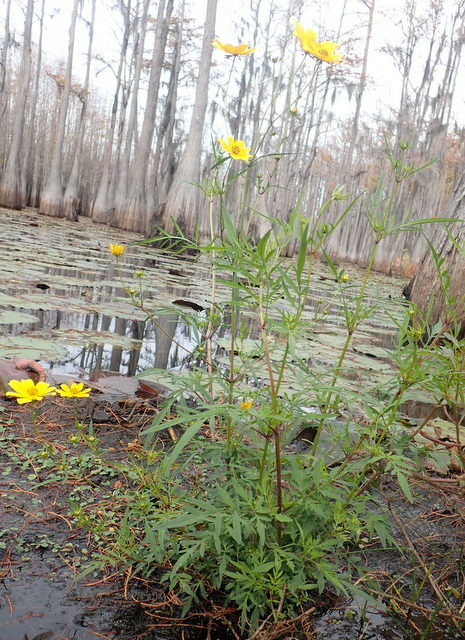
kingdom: Plantae
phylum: Tracheophyta
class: Magnoliopsida
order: Asterales
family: Asteraceae
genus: Bidens
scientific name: Bidens mitis
